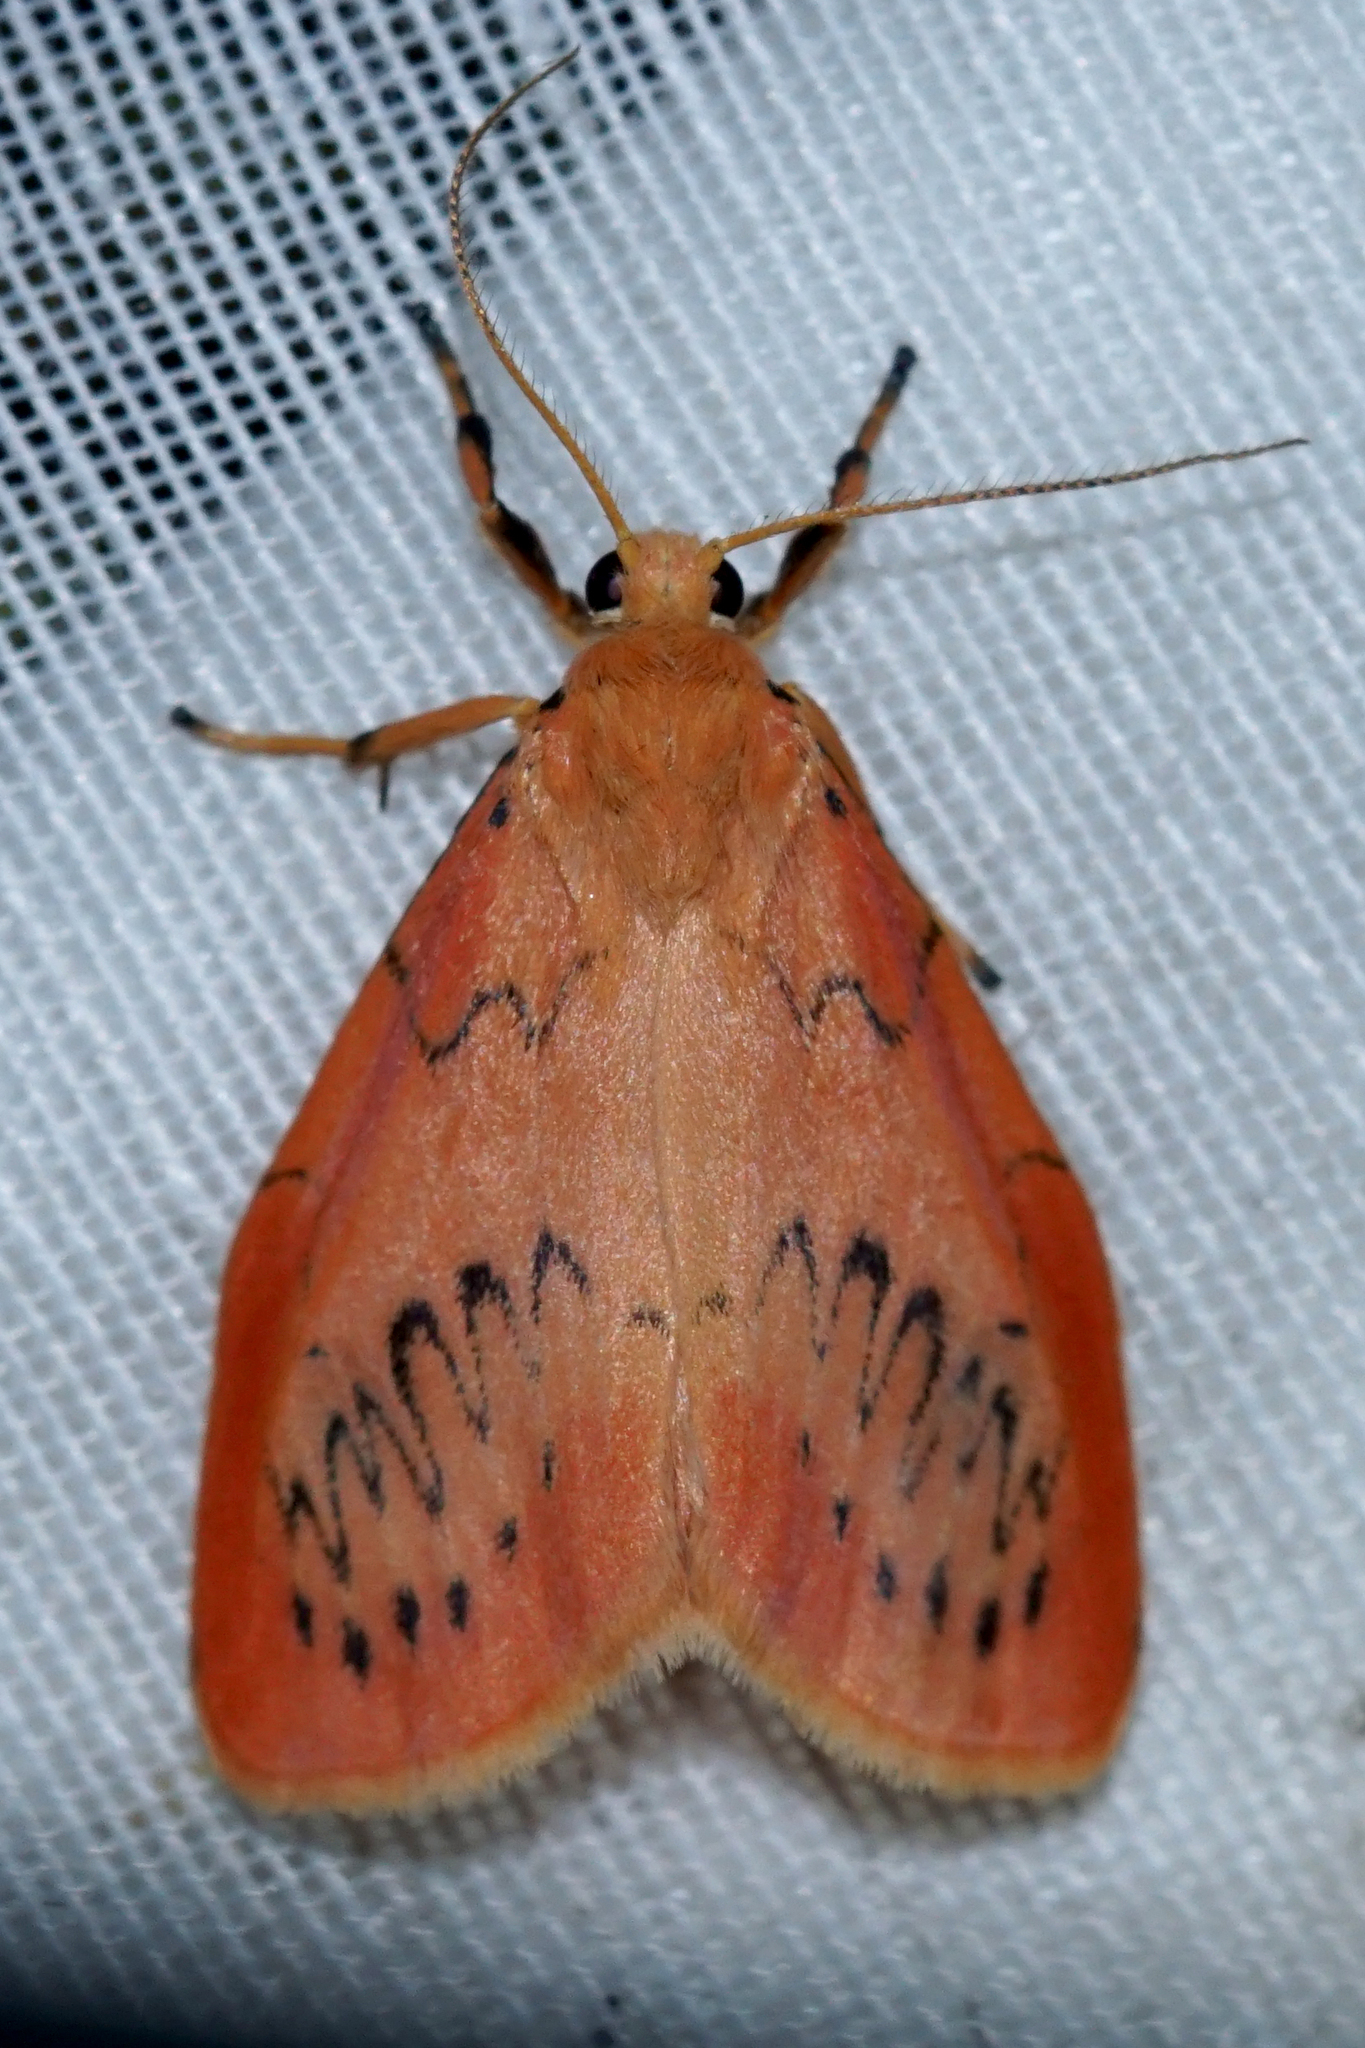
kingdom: Animalia
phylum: Arthropoda
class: Insecta
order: Lepidoptera
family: Erebidae
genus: Miltochrista
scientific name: Miltochrista miniata
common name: Rosy footman
